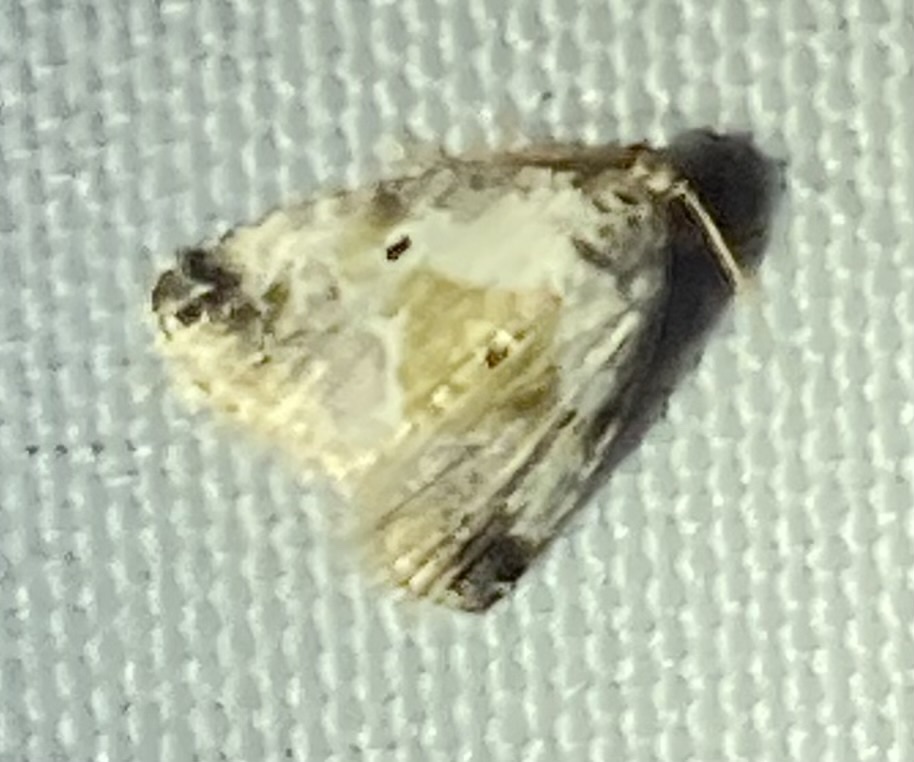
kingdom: Animalia
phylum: Arthropoda
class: Insecta
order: Lepidoptera
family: Noctuidae
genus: Maliattha
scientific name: Maliattha synochitis
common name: Black-dotted glyph
